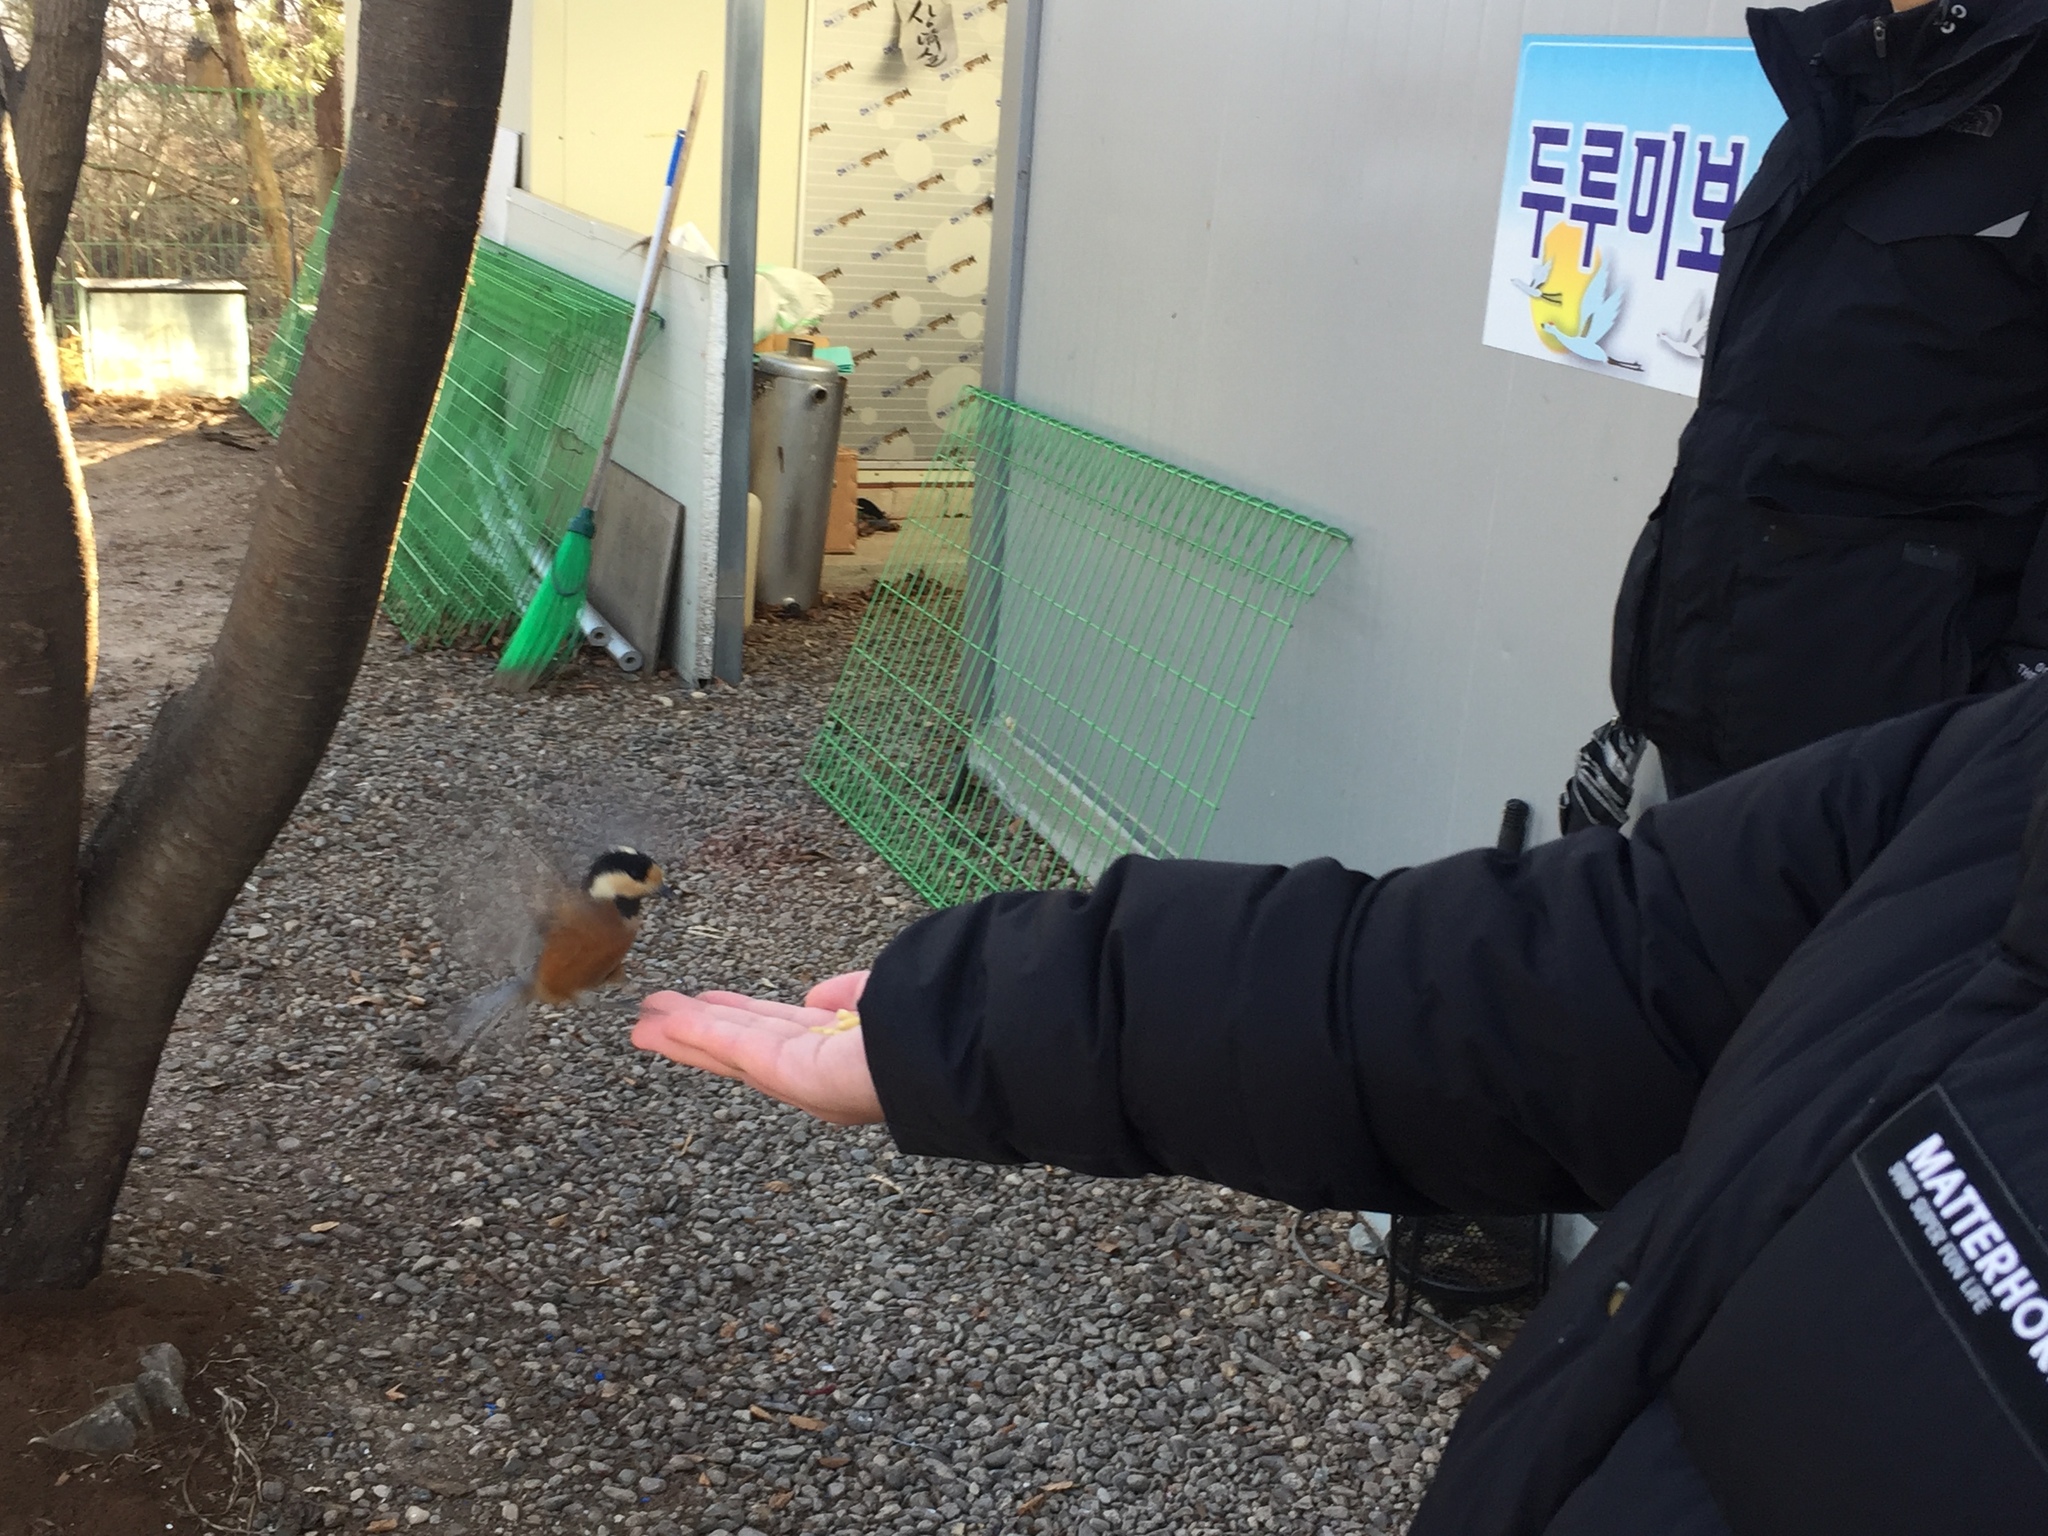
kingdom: Animalia
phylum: Chordata
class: Aves
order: Passeriformes
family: Paridae
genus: Poecile
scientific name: Poecile varius
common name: Varied tit
